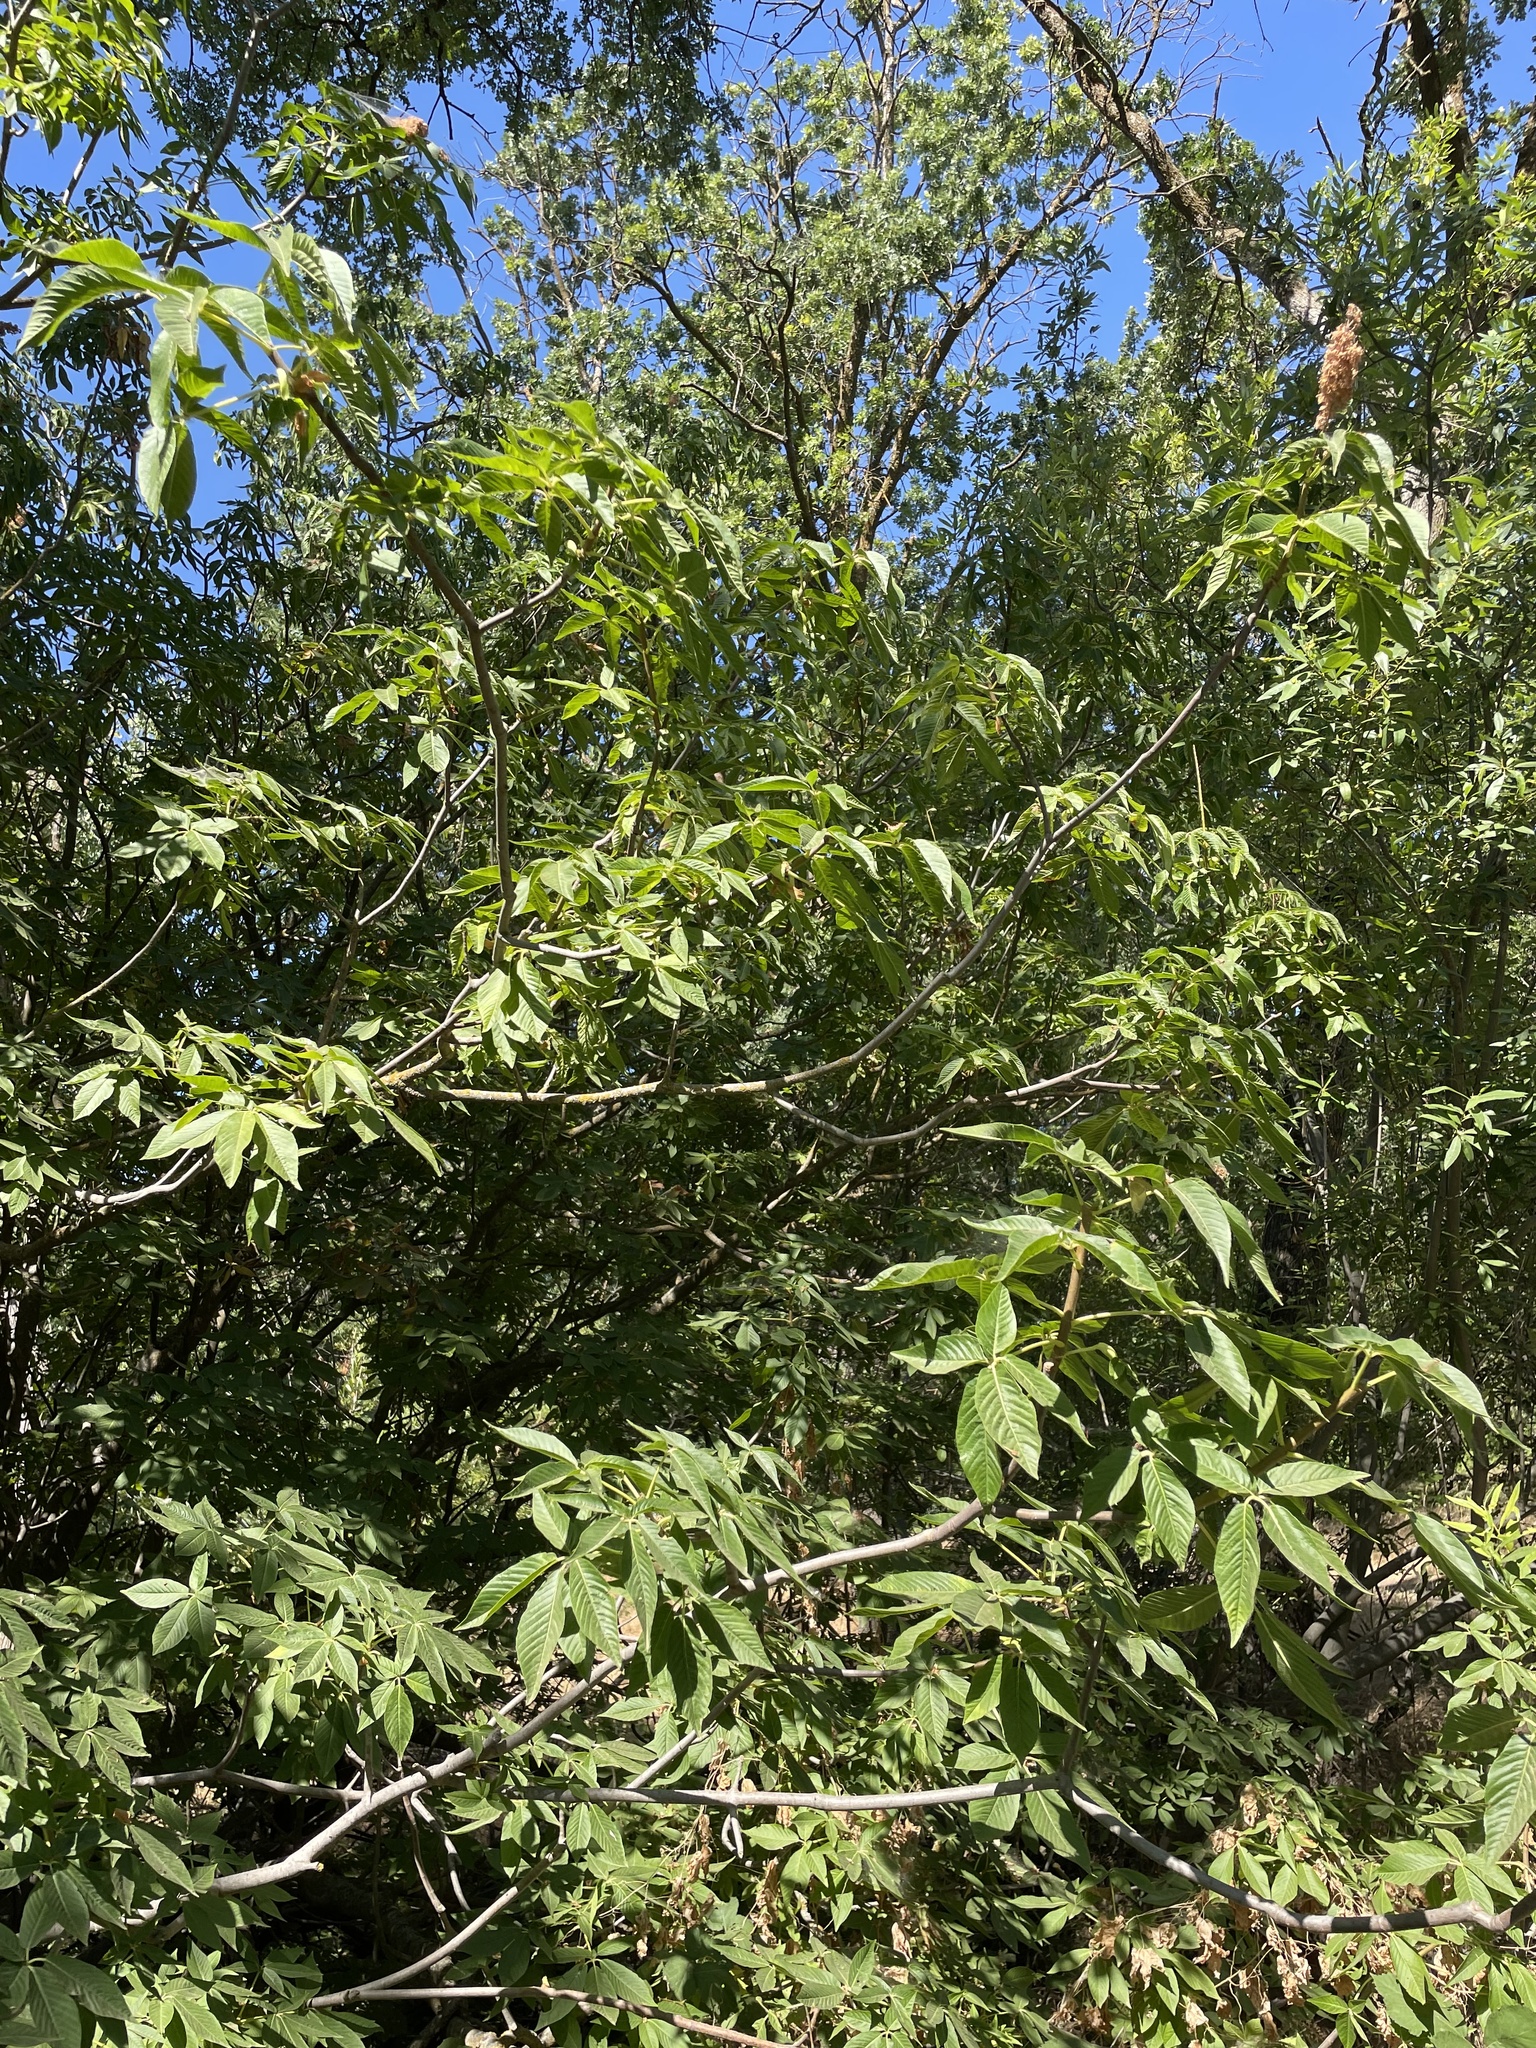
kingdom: Plantae
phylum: Tracheophyta
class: Magnoliopsida
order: Sapindales
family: Sapindaceae
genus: Aesculus
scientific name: Aesculus californica
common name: California buckeye
